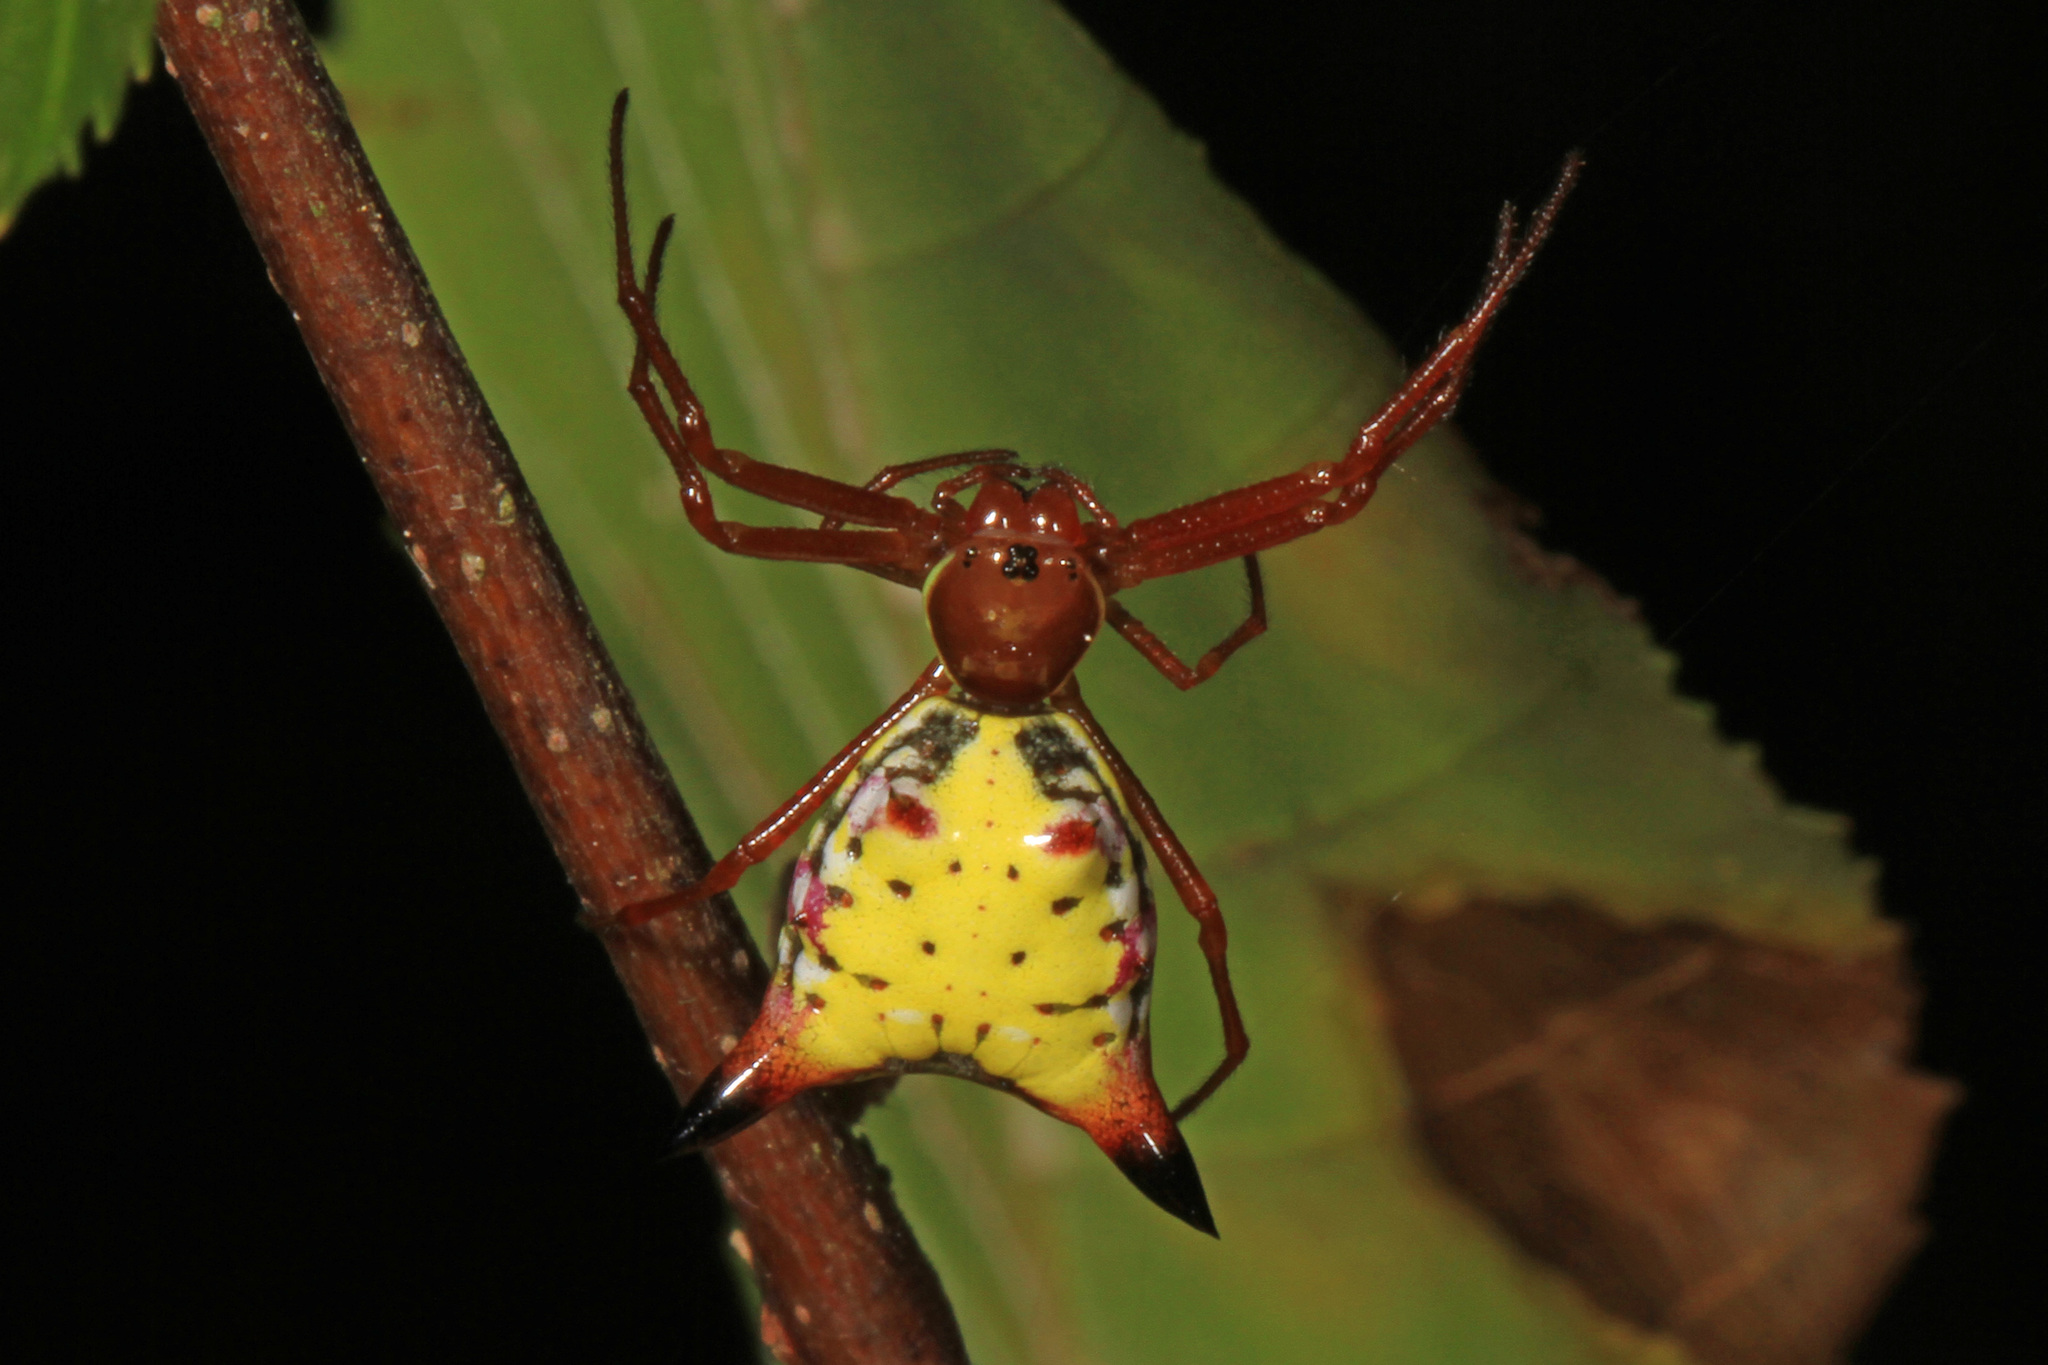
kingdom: Animalia
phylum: Arthropoda
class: Arachnida
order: Araneae
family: Araneidae
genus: Micrathena
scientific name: Micrathena sagittata
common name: Orb weavers
